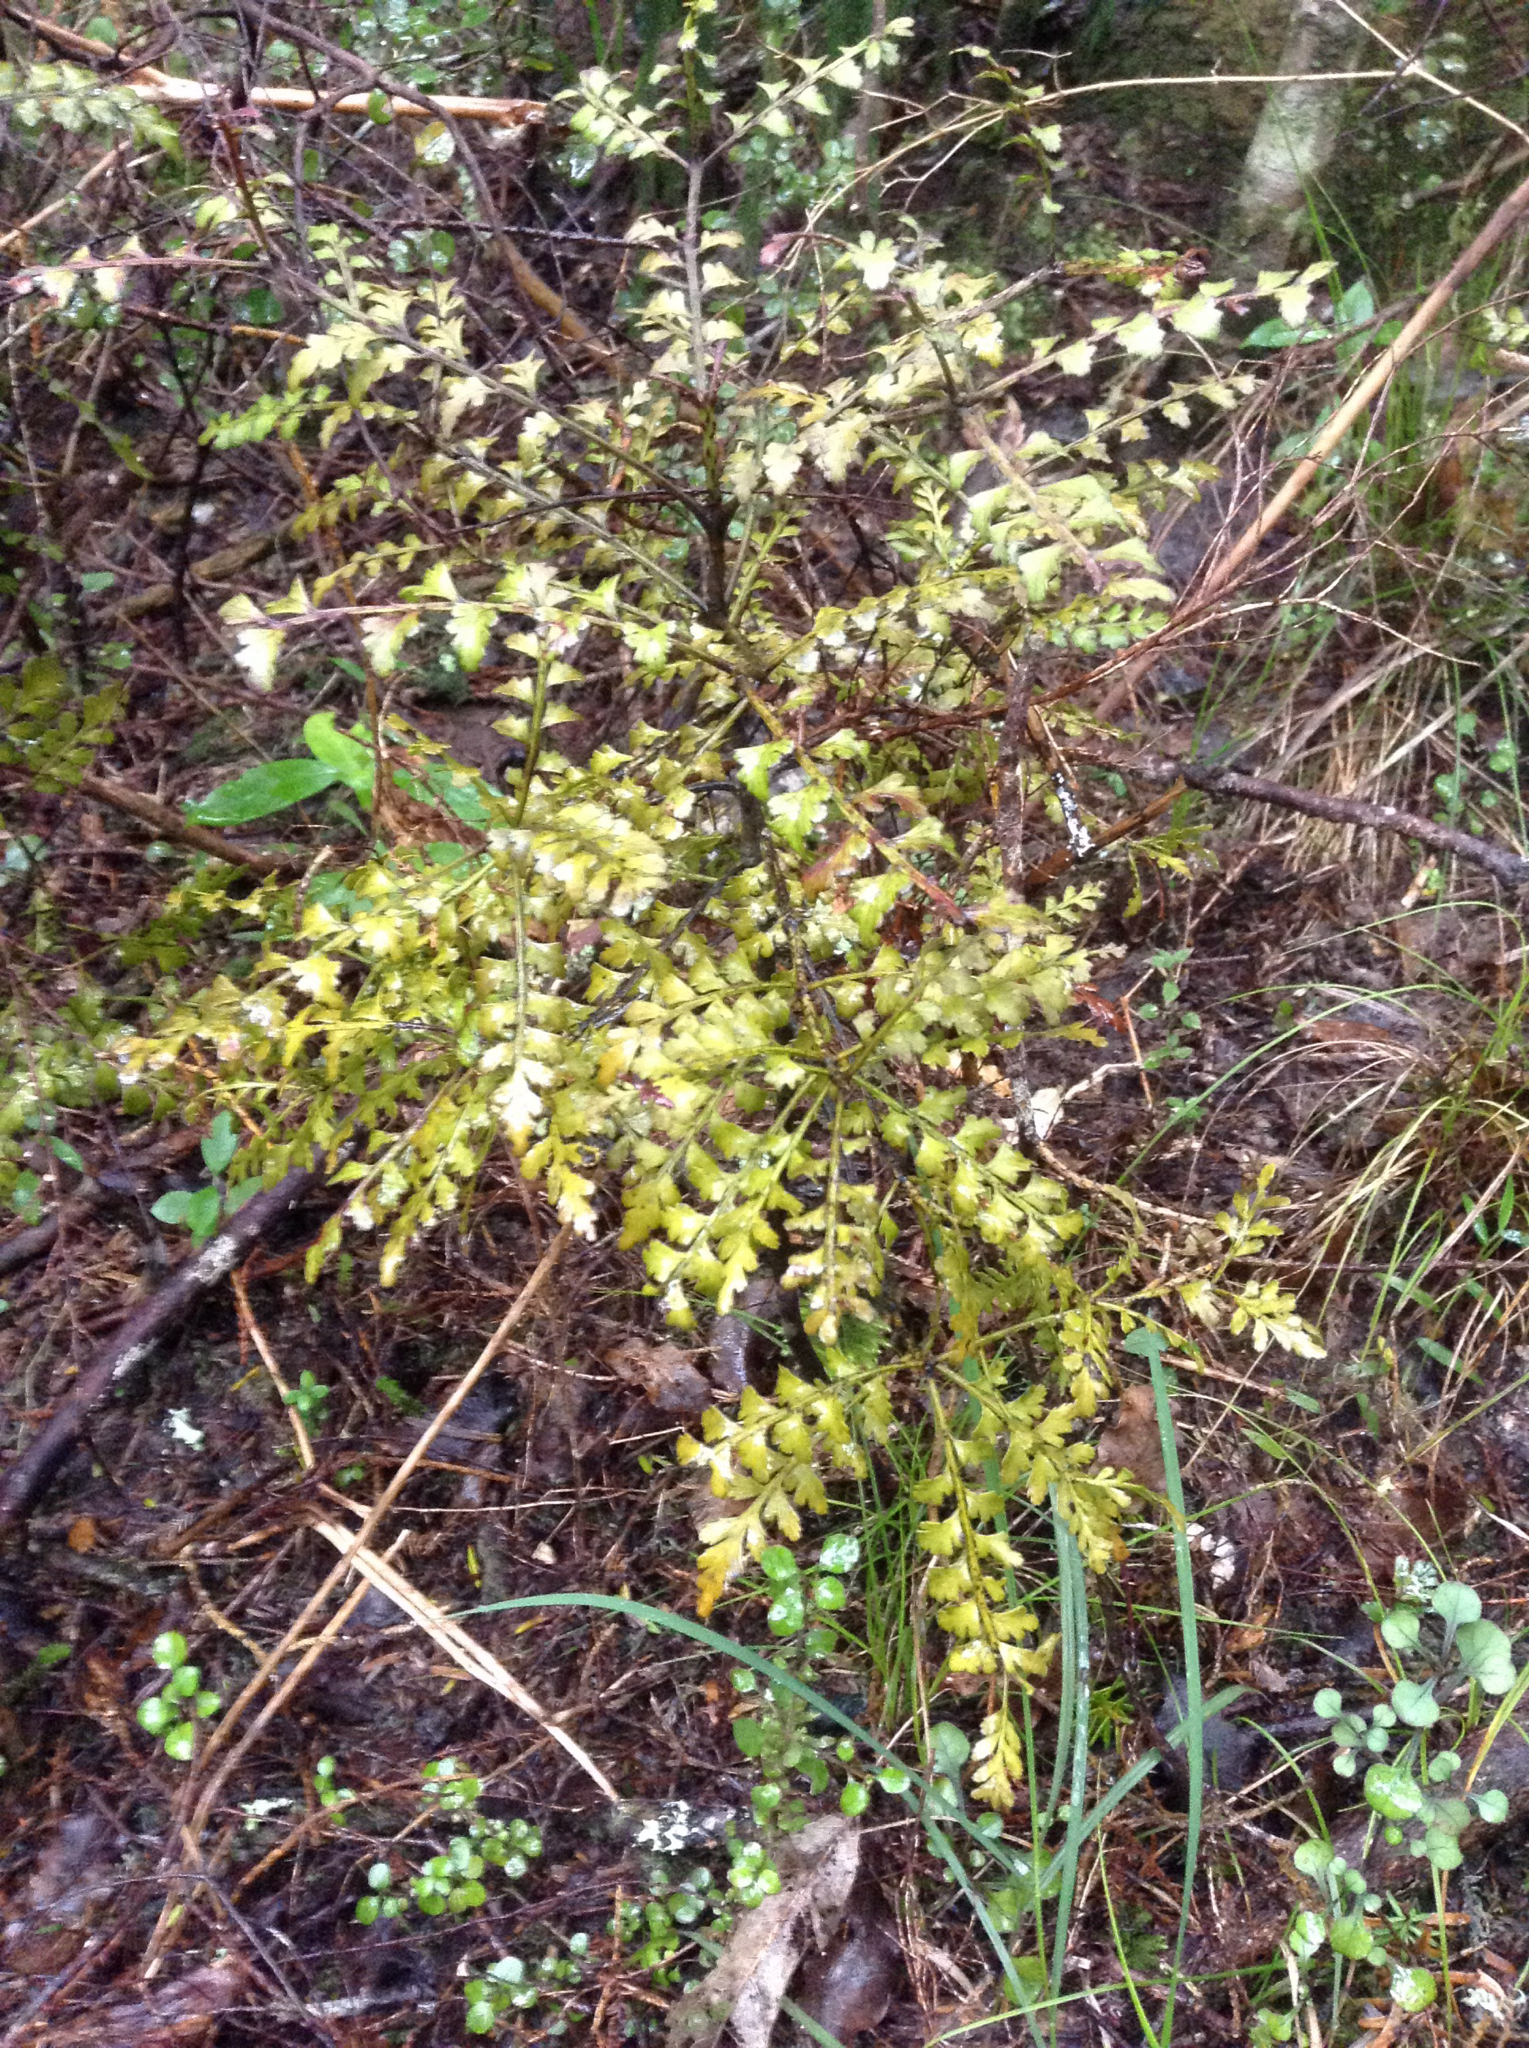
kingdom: Plantae
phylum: Tracheophyta
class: Pinopsida
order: Pinales
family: Phyllocladaceae
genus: Phyllocladus
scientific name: Phyllocladus trichomanoides
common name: Celery pine
